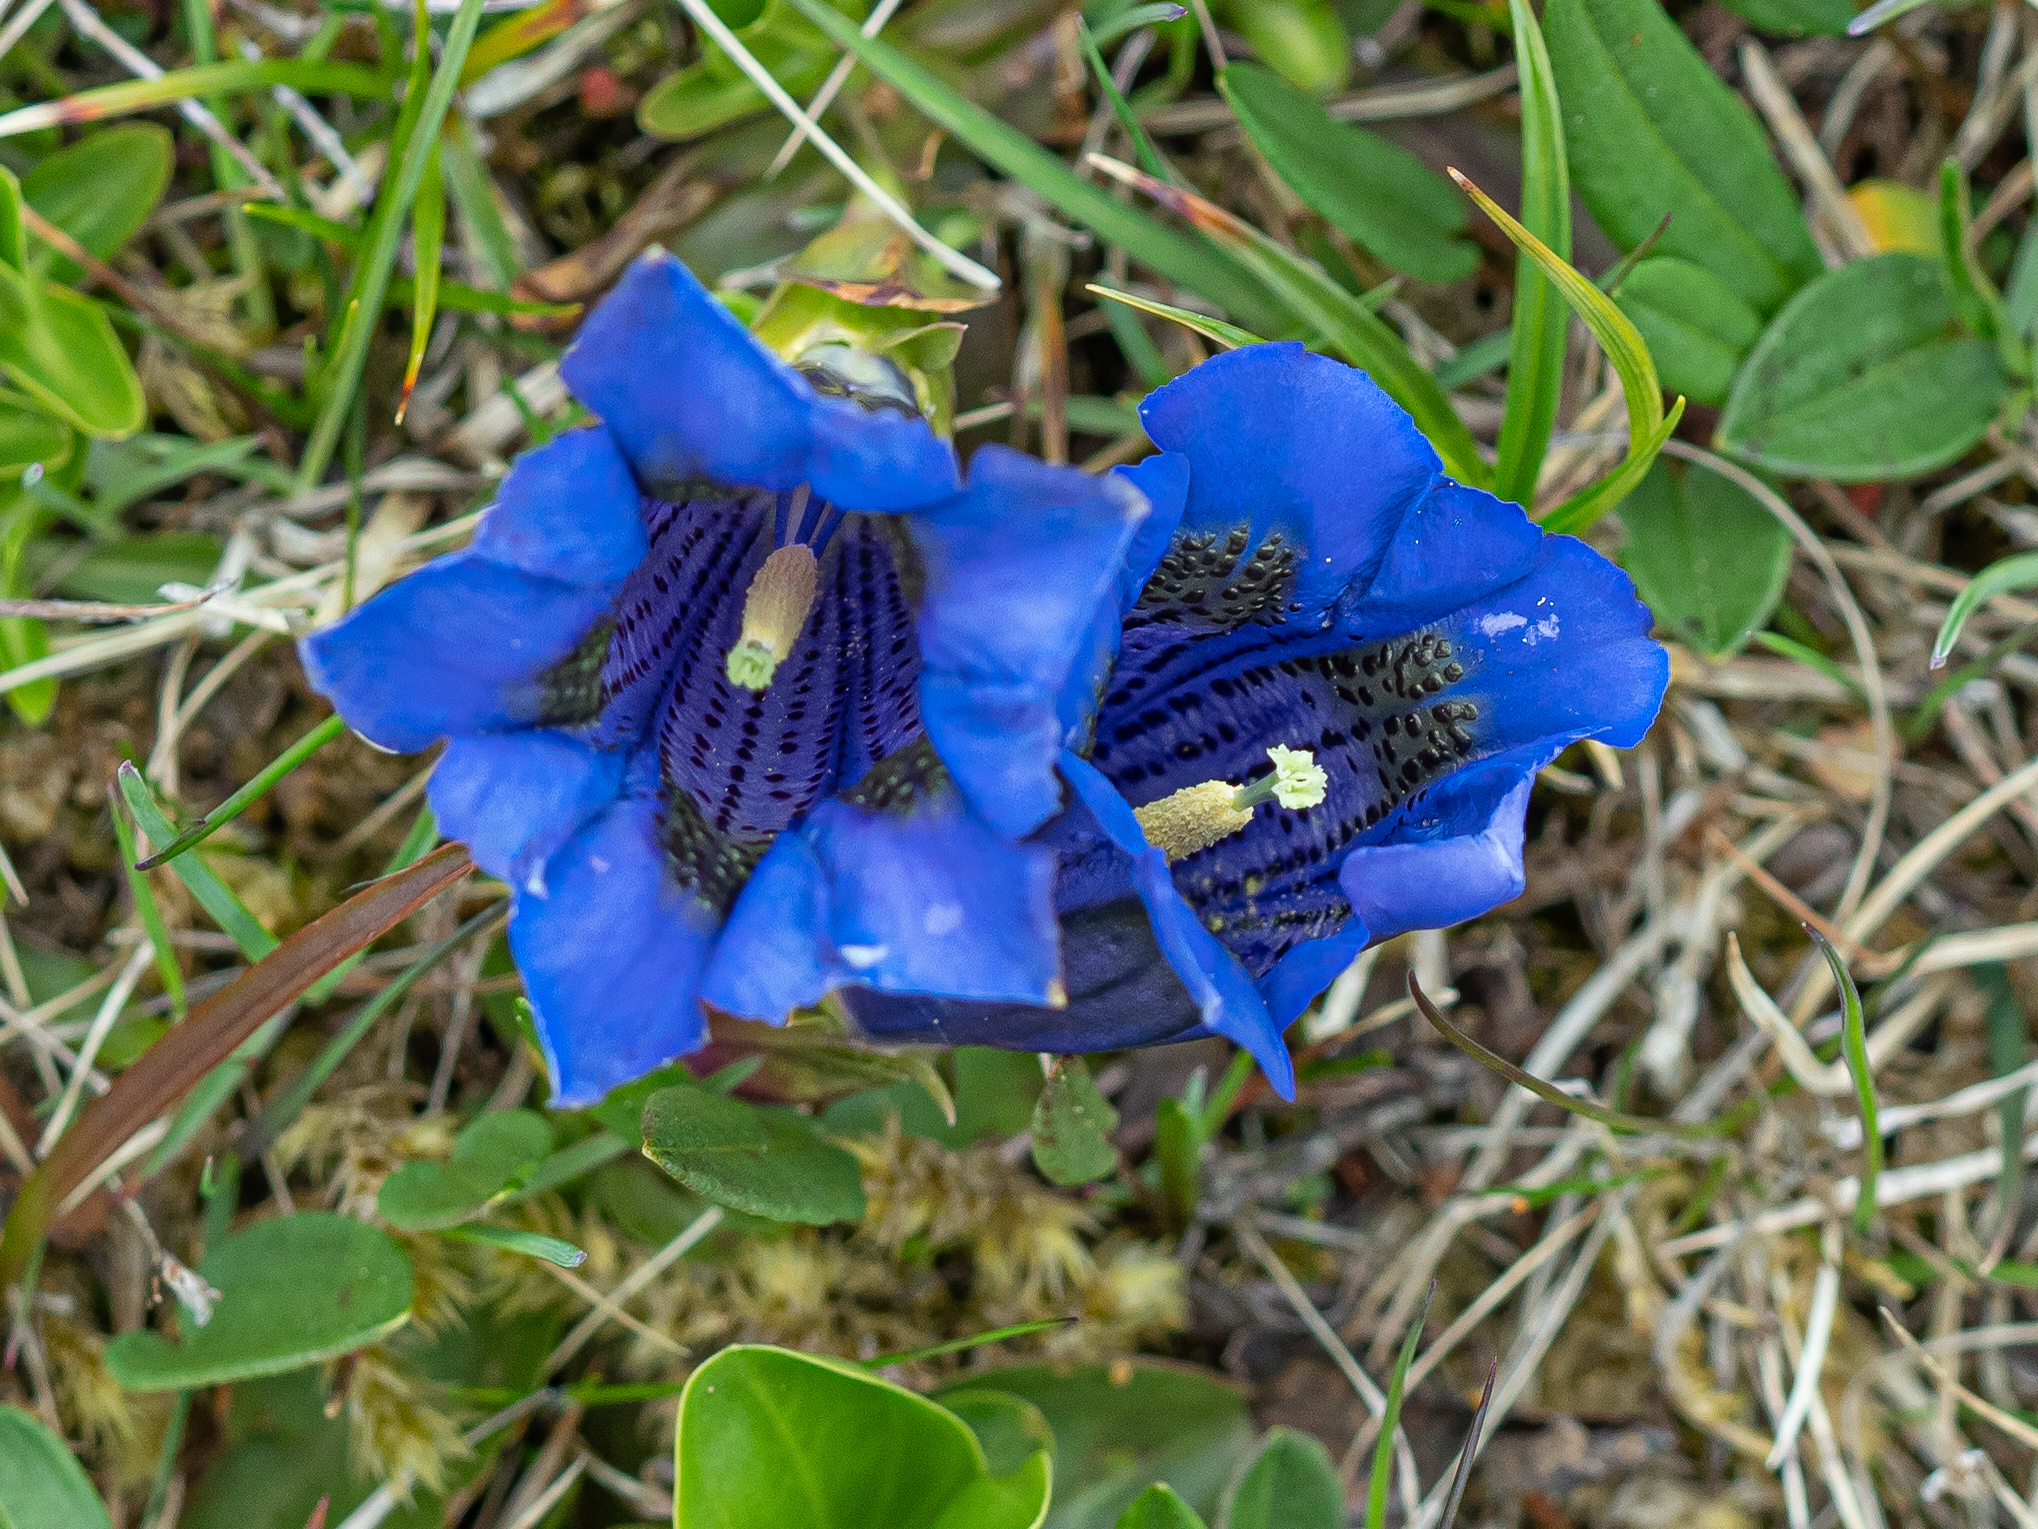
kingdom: Plantae
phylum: Tracheophyta
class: Magnoliopsida
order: Gentianales
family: Gentianaceae
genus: Gentiana
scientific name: Gentiana acaulis
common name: Trumpet gentian
